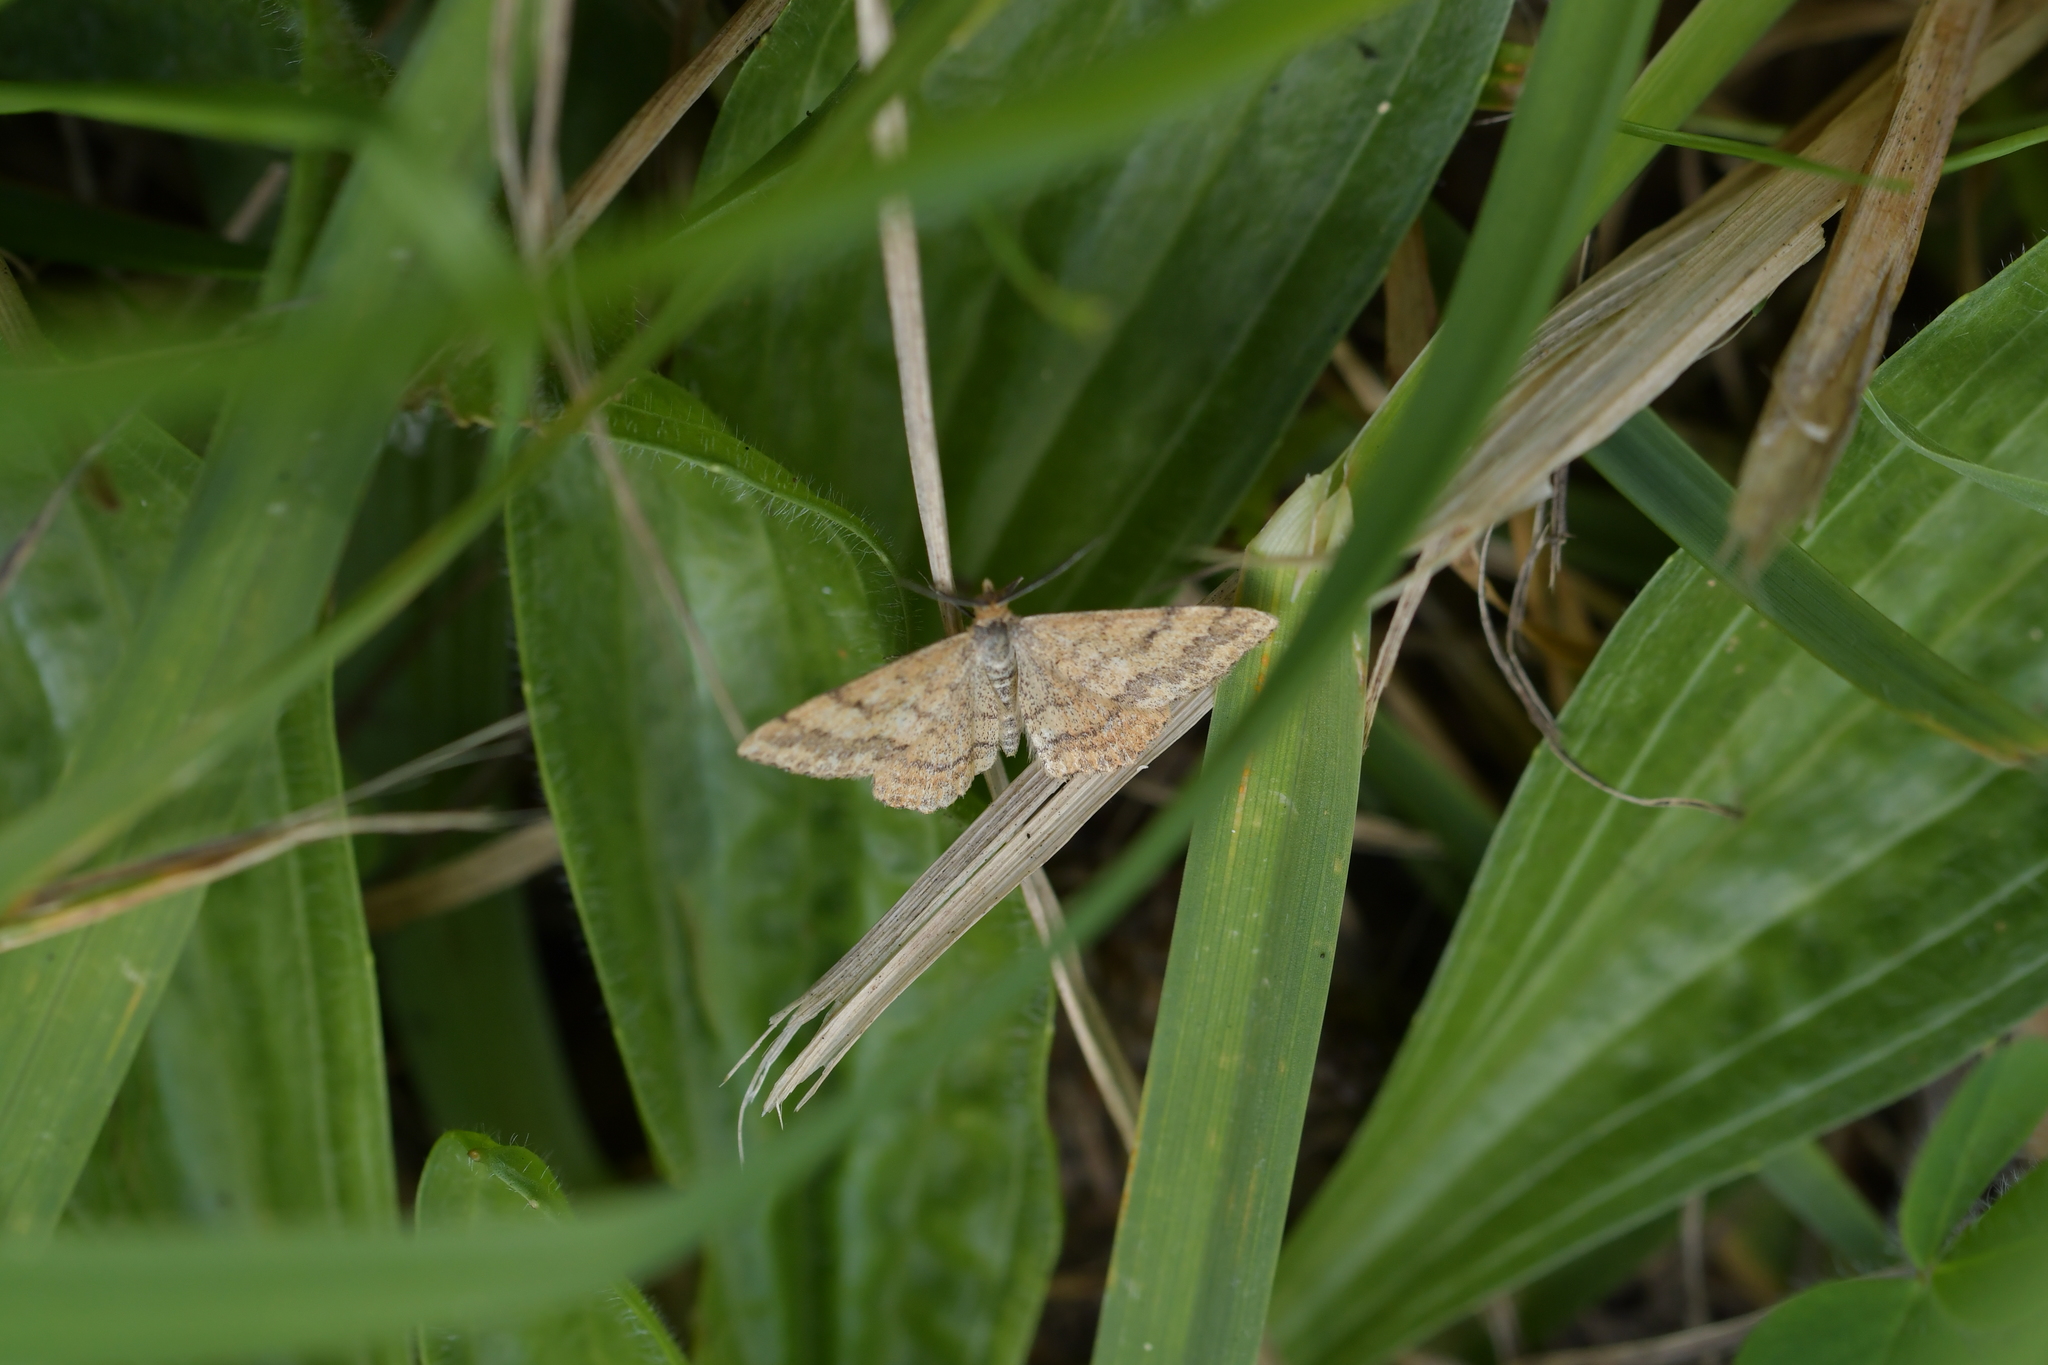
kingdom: Animalia
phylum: Arthropoda
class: Insecta
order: Lepidoptera
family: Geometridae
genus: Scopula
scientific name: Scopula rubraria
